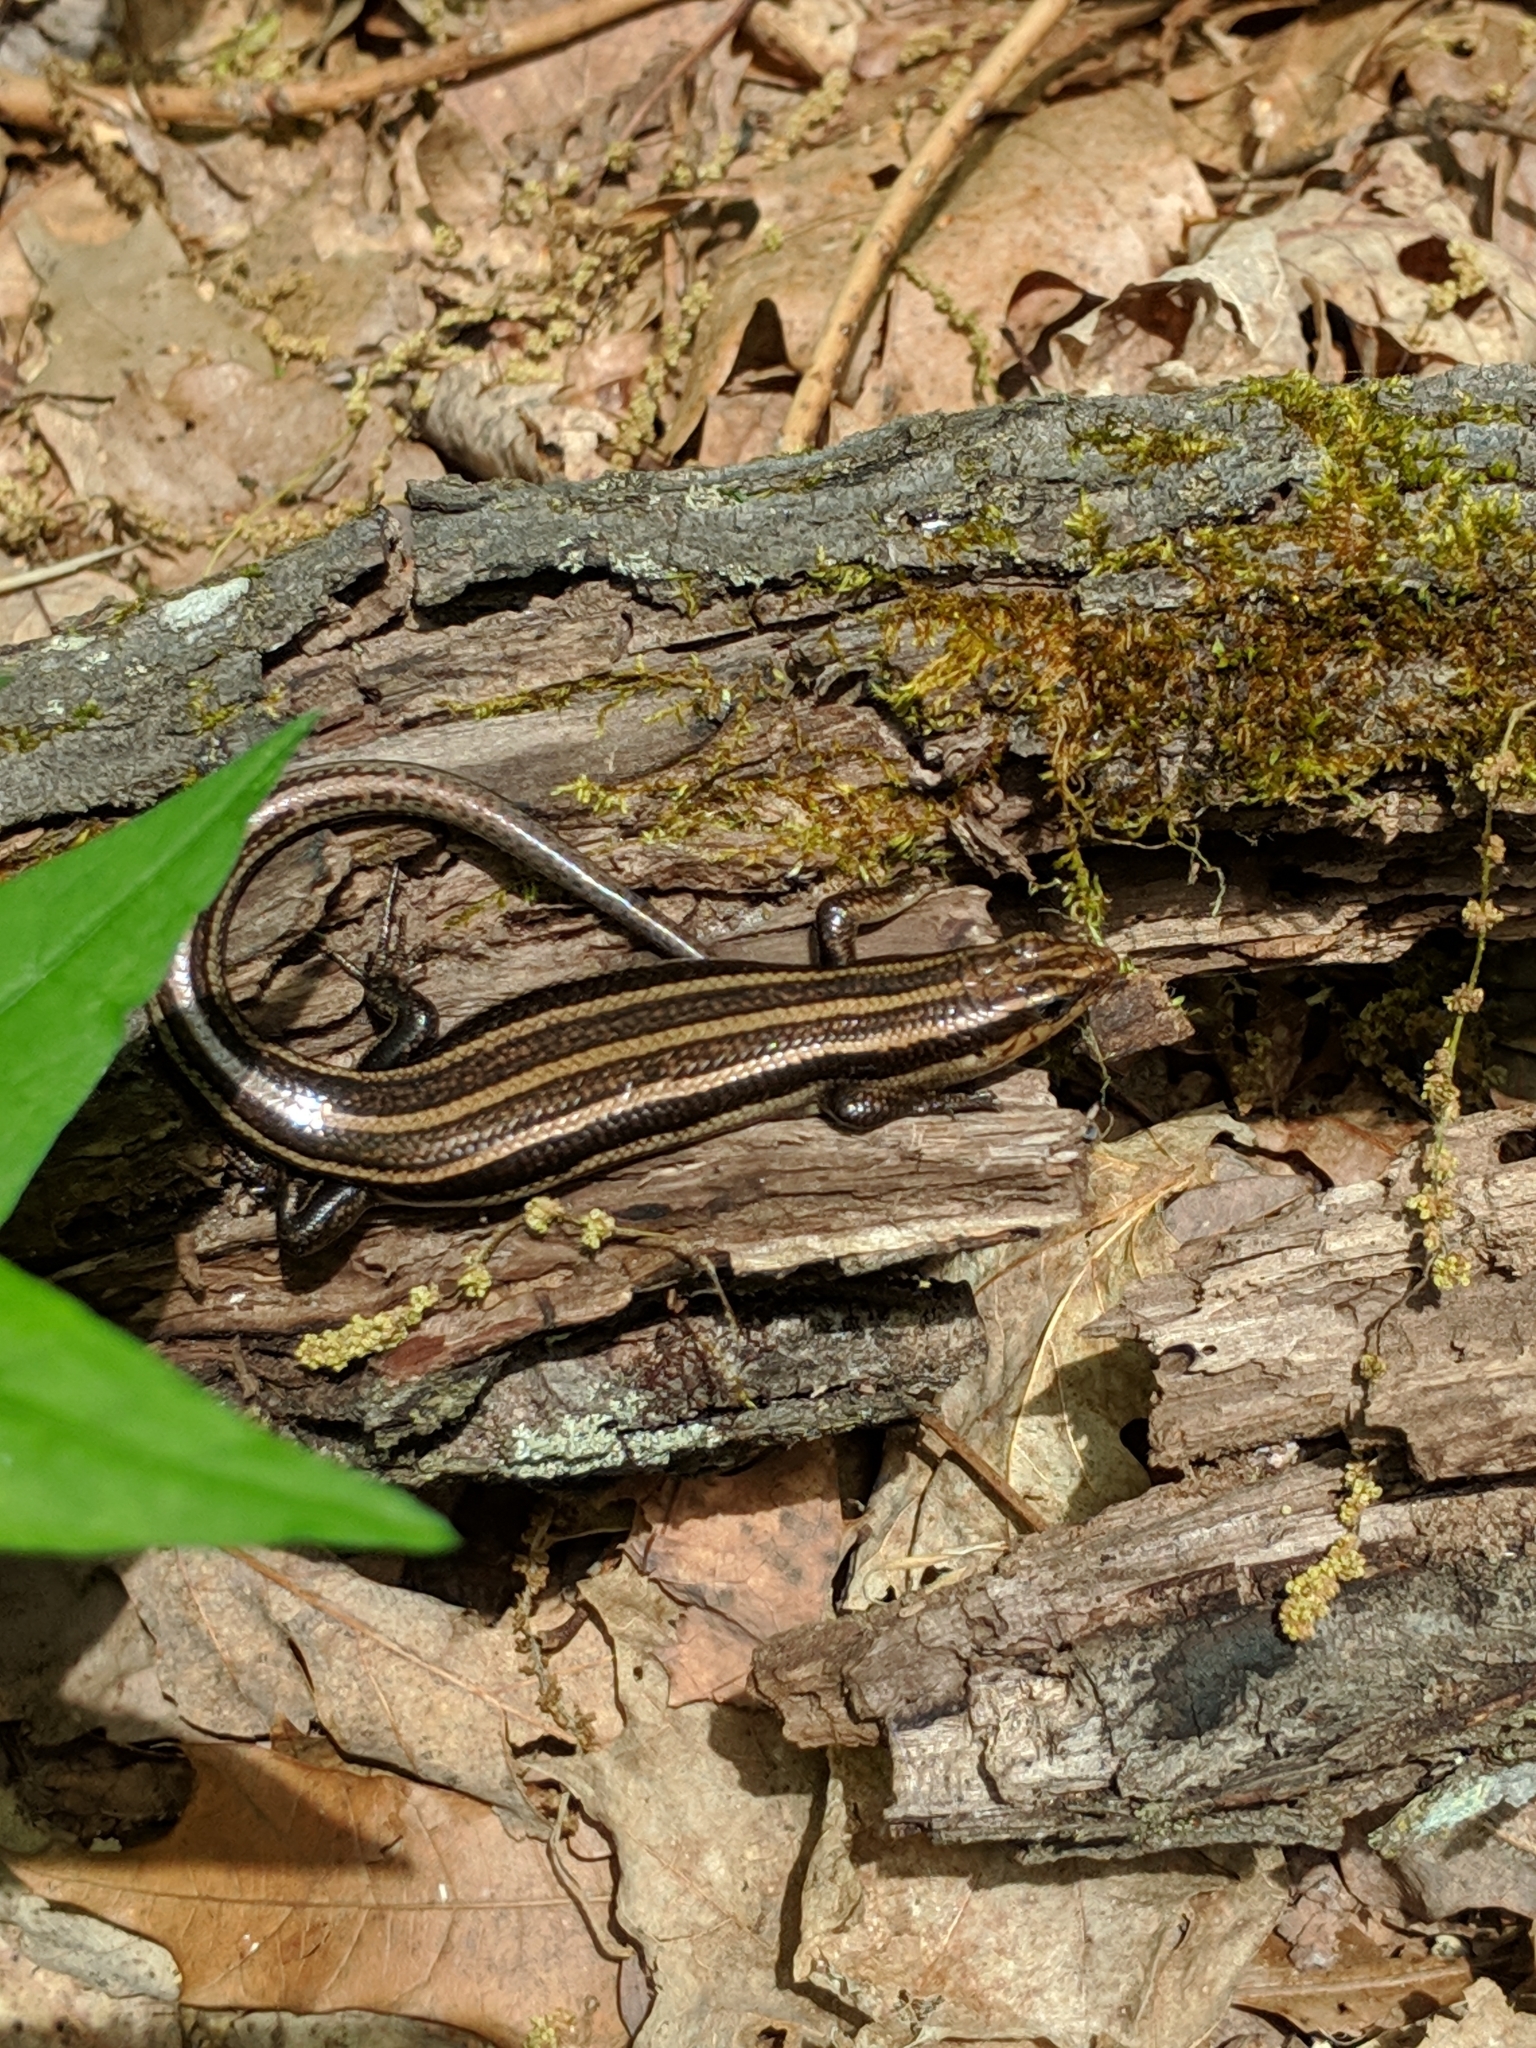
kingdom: Animalia
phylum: Chordata
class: Squamata
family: Scincidae
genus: Plestiodon
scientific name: Plestiodon fasciatus
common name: Five-lined skink
